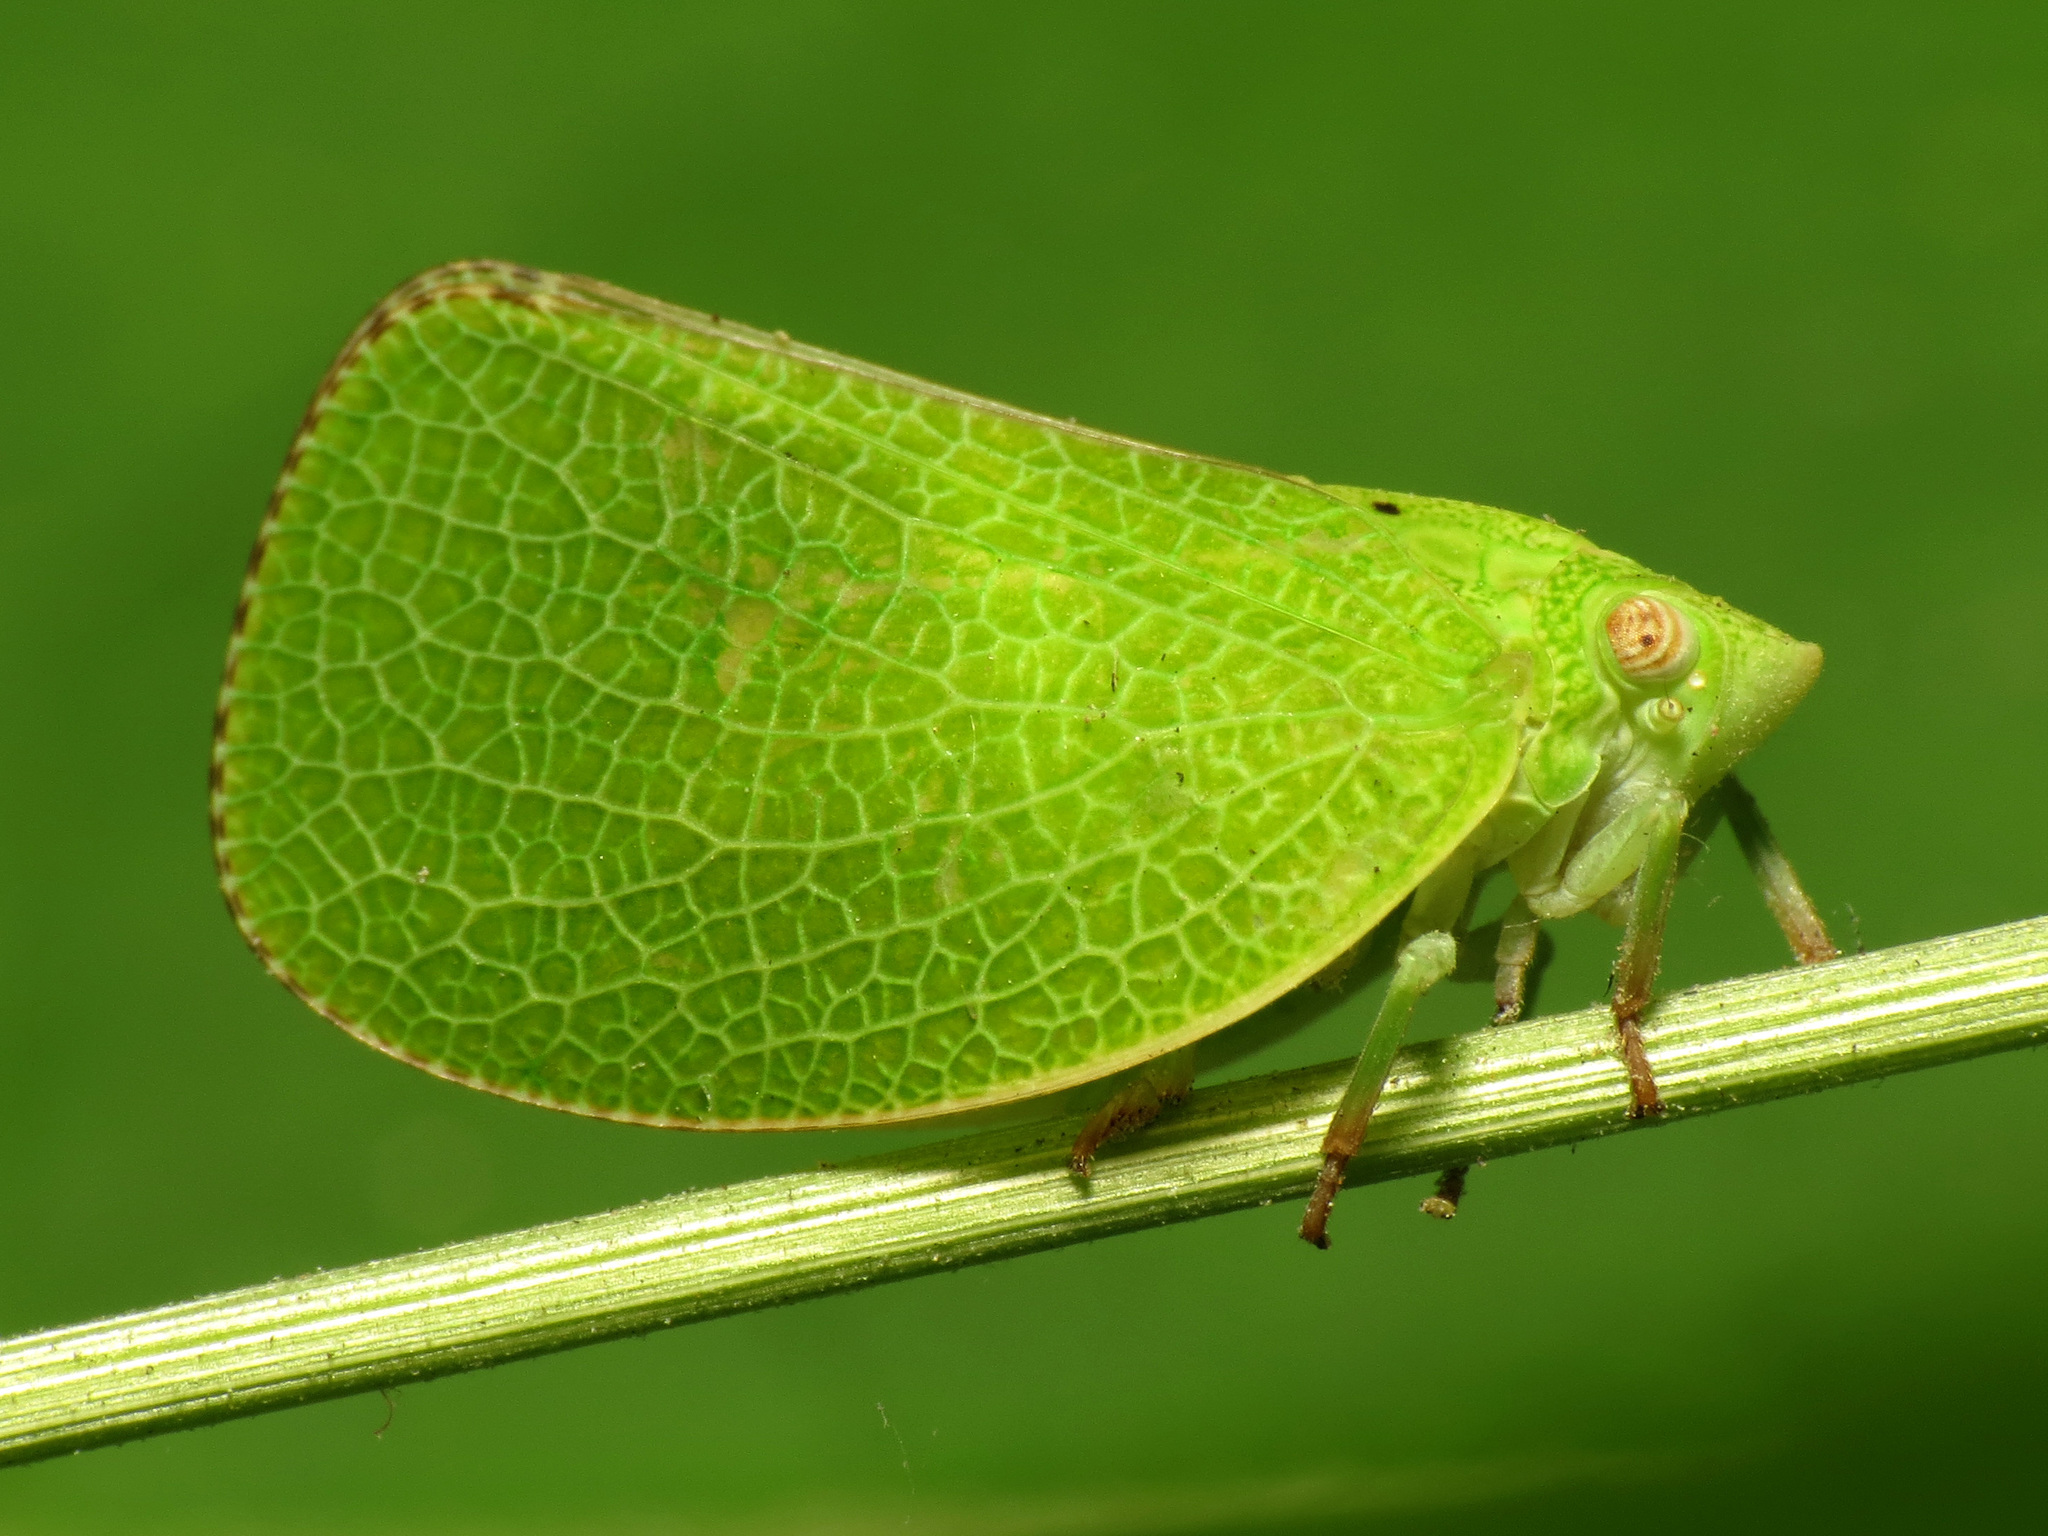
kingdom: Animalia
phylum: Arthropoda
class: Insecta
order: Hemiptera
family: Acanaloniidae
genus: Acanalonia
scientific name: Acanalonia conica
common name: Green cone-headed planthopper
